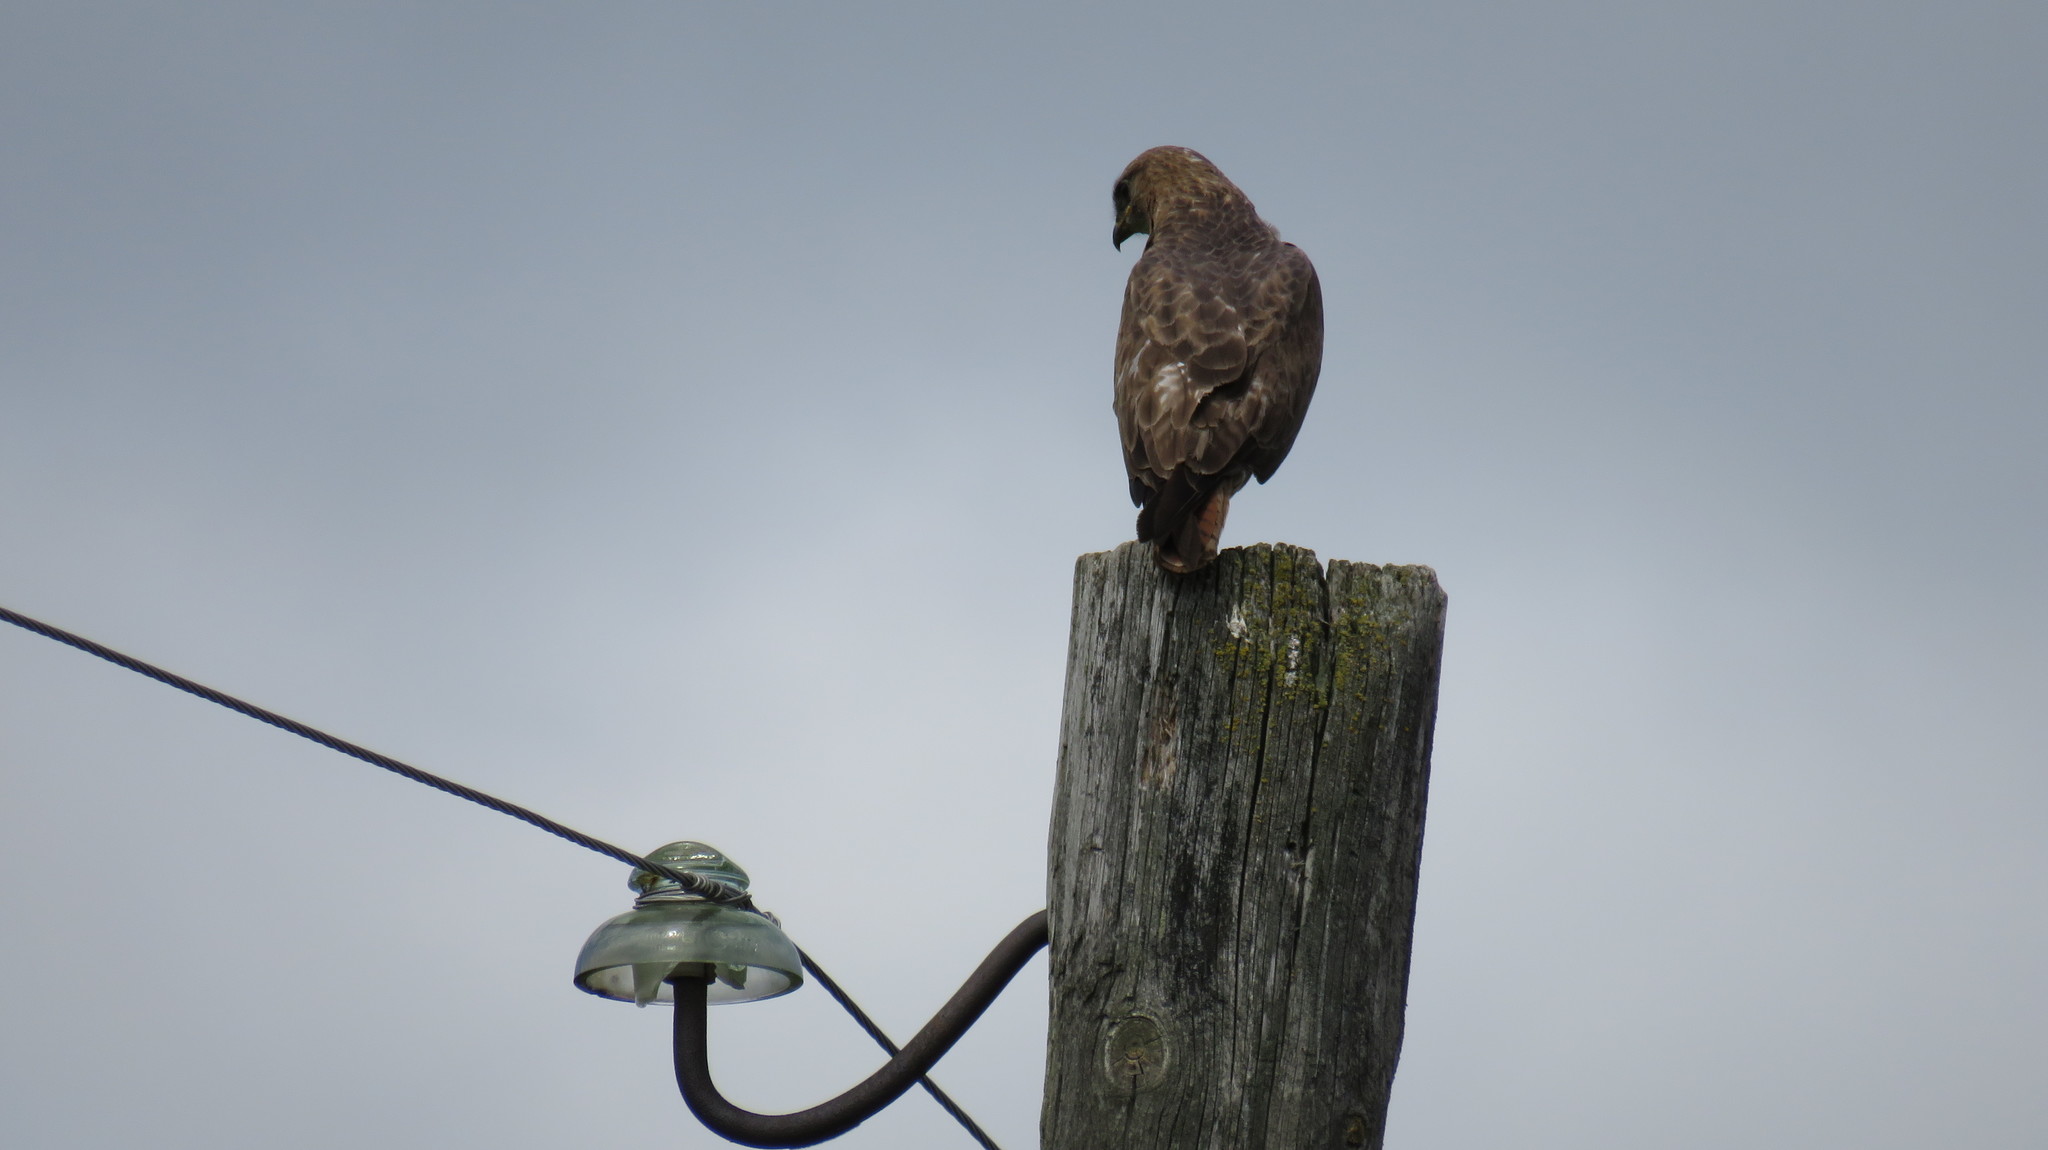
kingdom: Animalia
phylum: Chordata
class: Aves
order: Accipitriformes
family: Accipitridae
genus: Buteo
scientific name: Buteo buteo
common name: Common buzzard
